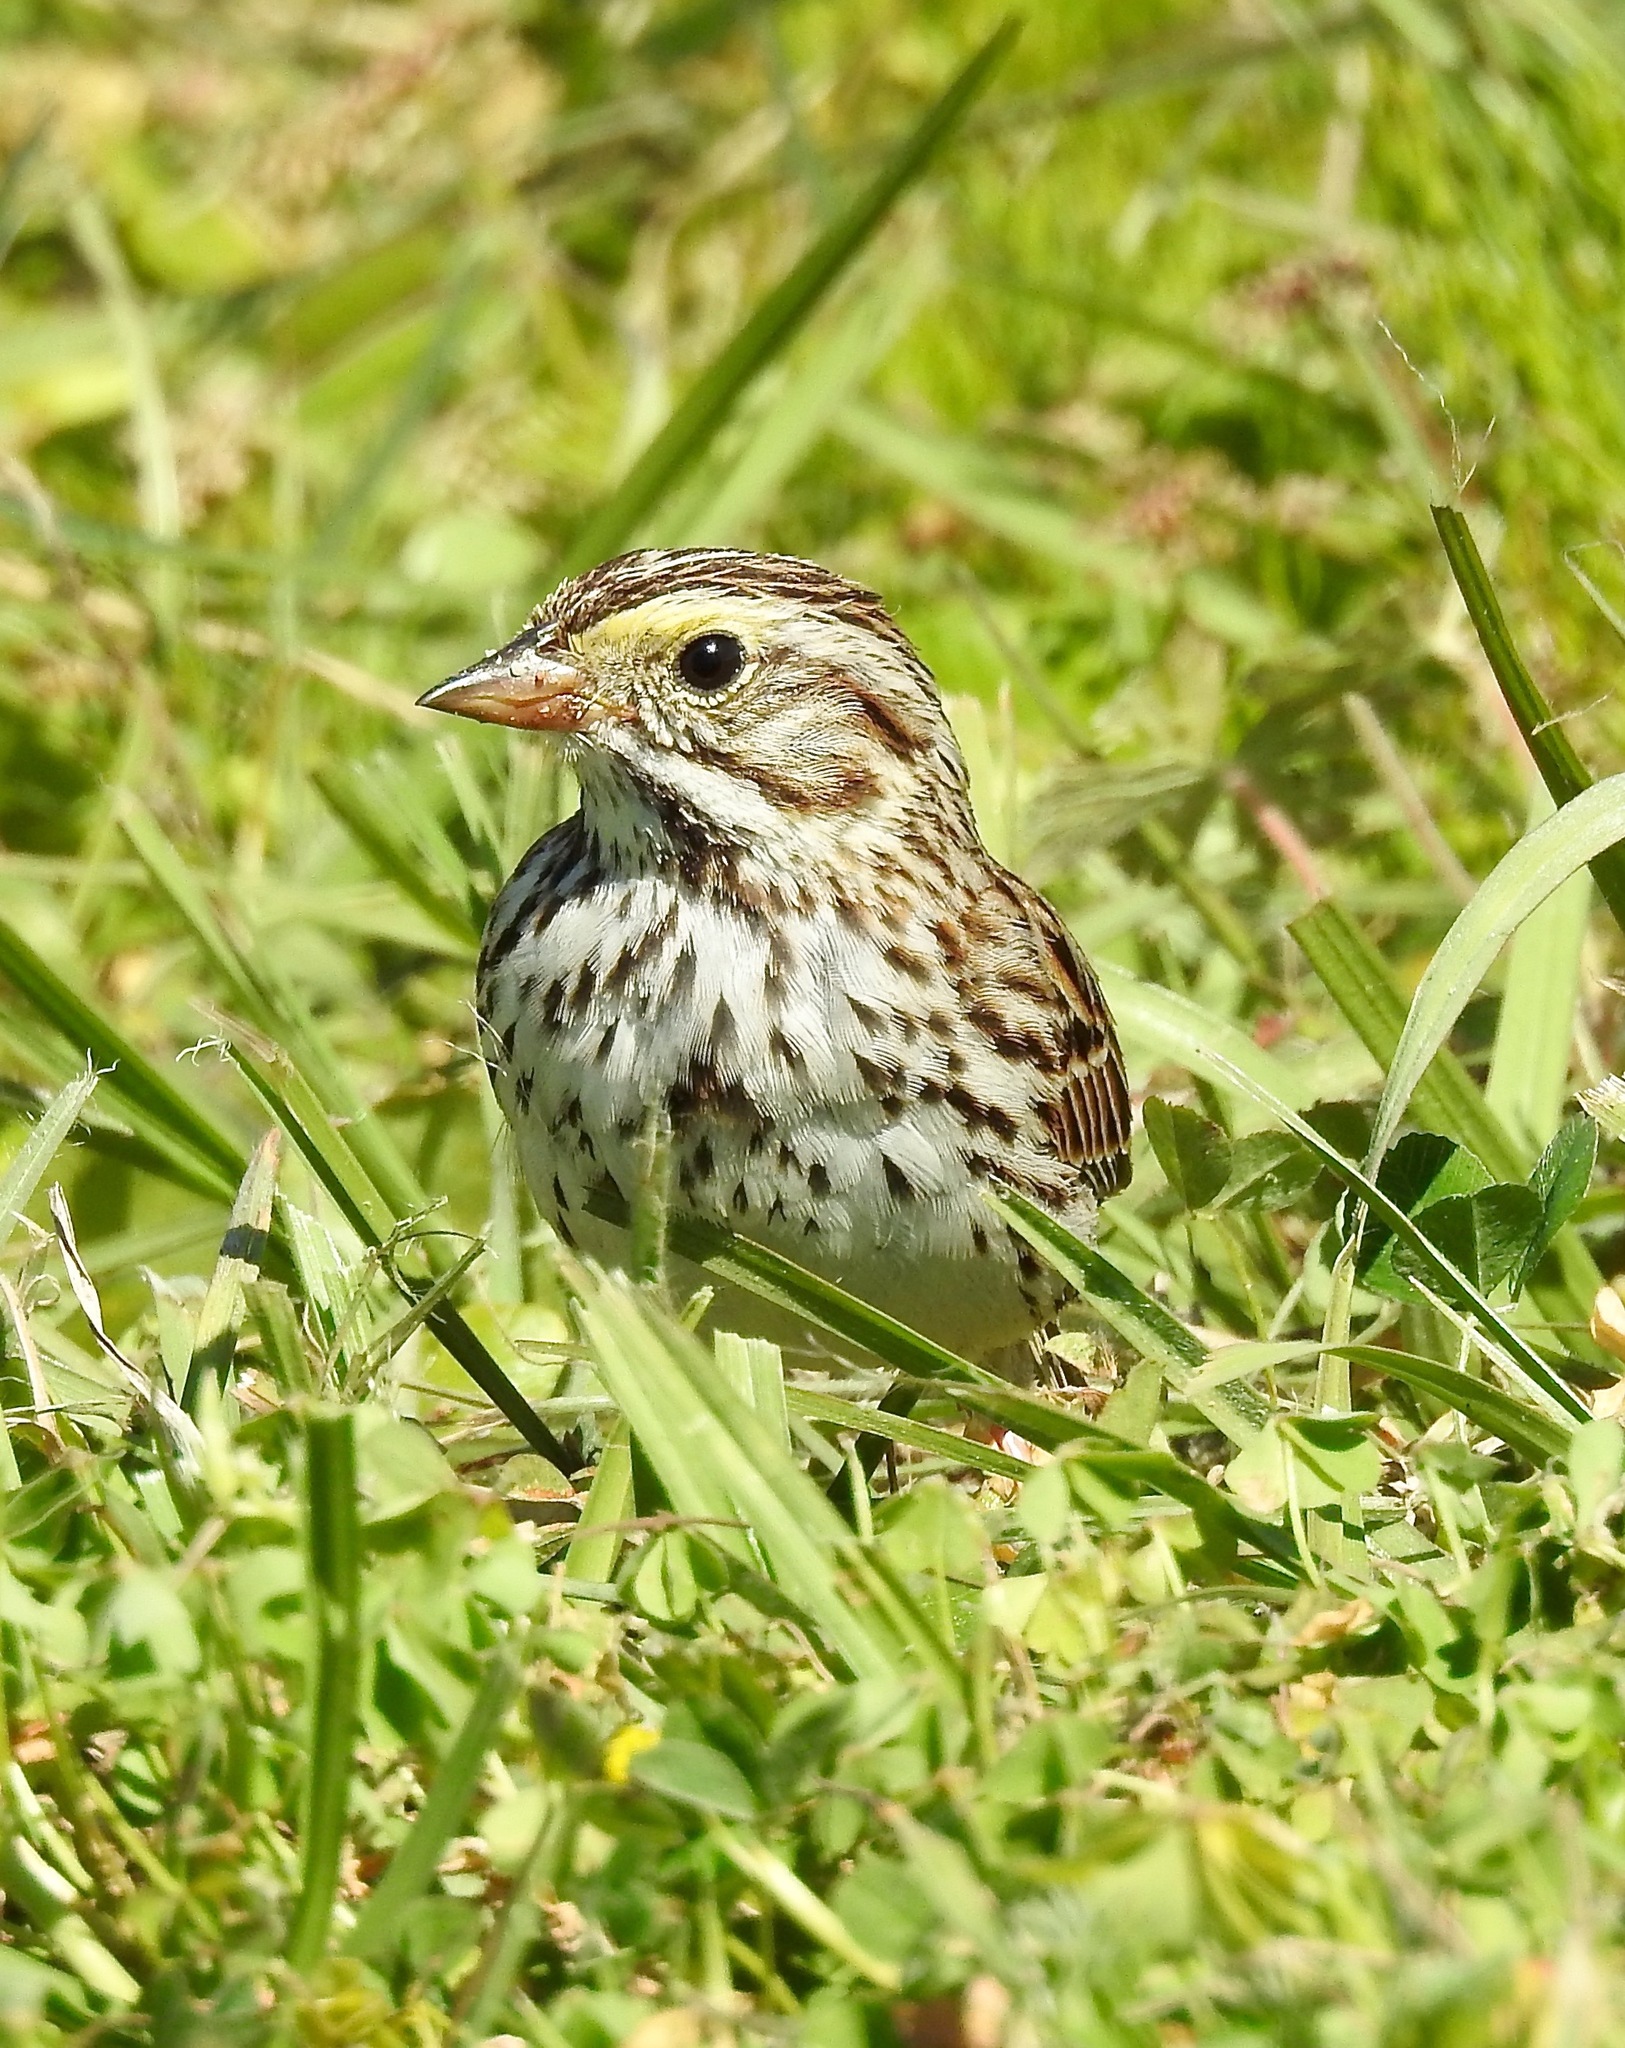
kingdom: Animalia
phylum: Chordata
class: Aves
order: Passeriformes
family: Passerellidae
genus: Passerculus
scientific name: Passerculus sandwichensis
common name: Savannah sparrow
